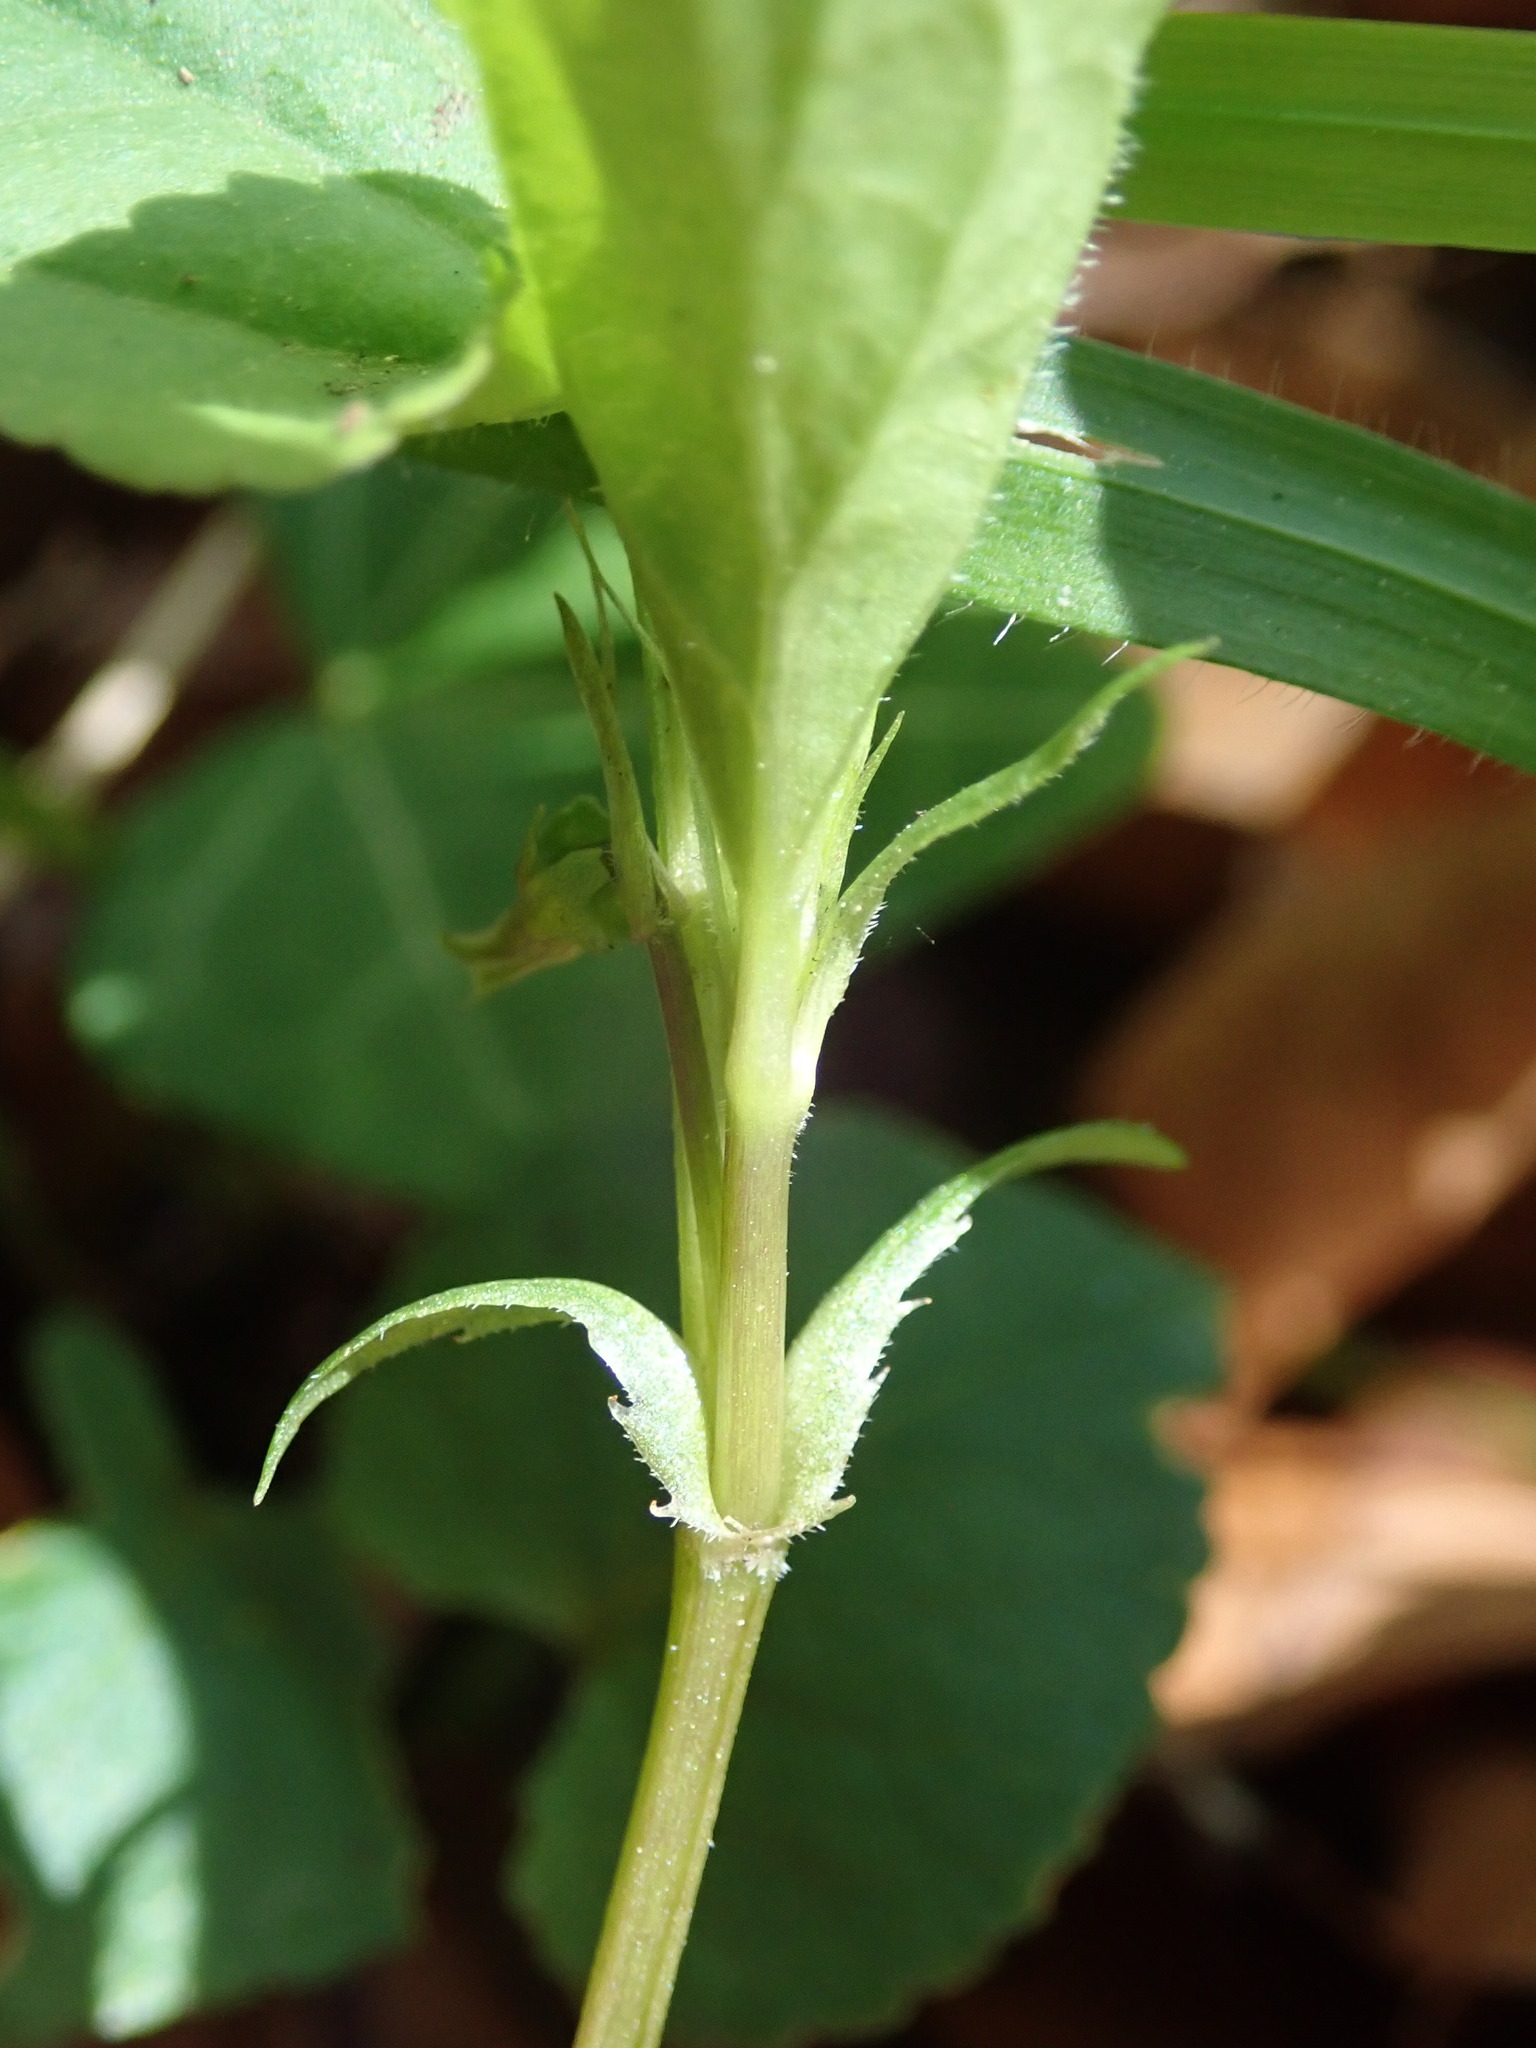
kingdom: Plantae
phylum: Tracheophyta
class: Magnoliopsida
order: Malpighiales
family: Violaceae
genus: Viola
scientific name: Viola riviniana
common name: Common dog-violet
